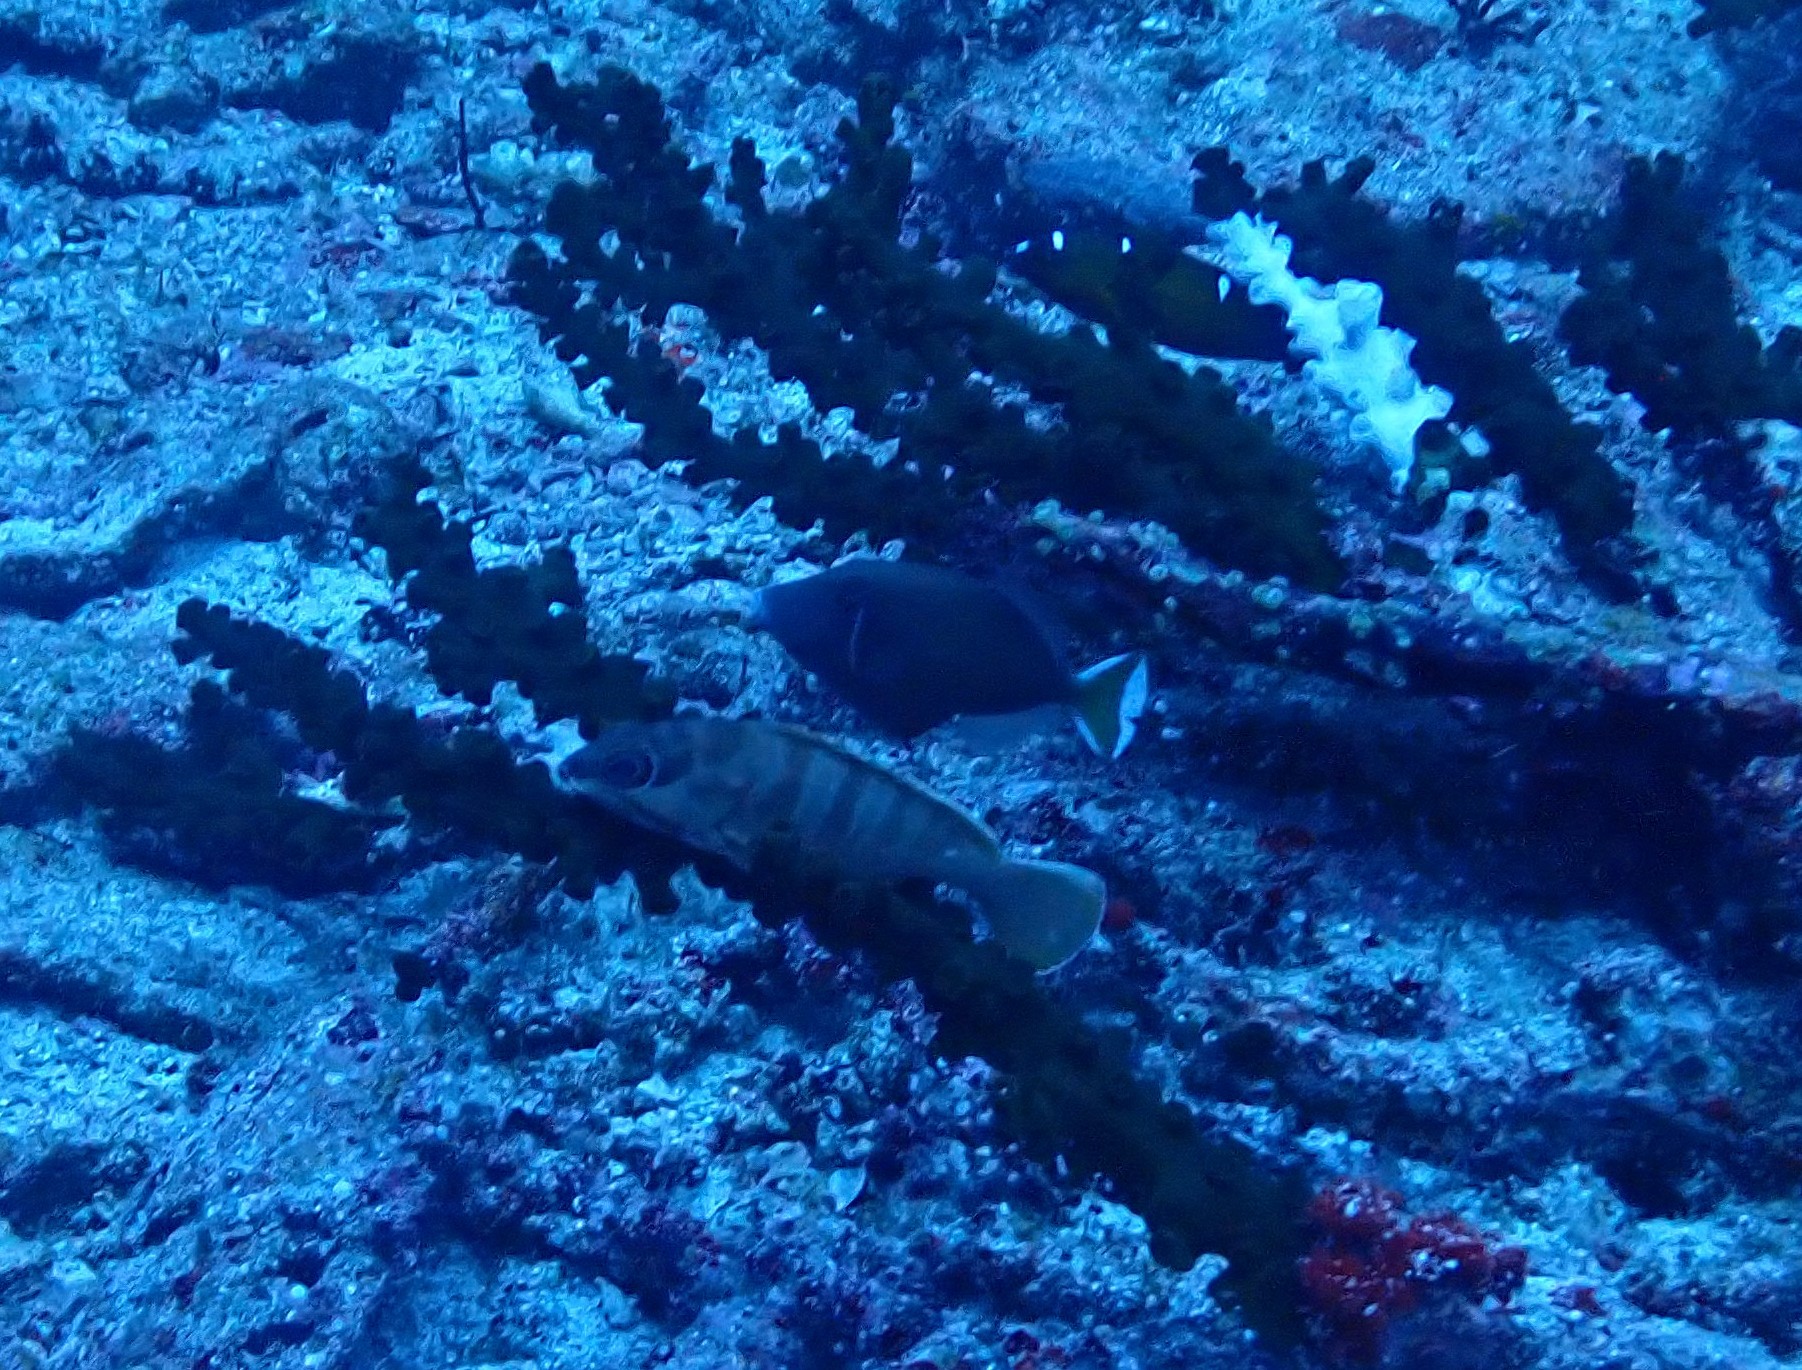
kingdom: Animalia
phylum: Chordata
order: Perciformes
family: Serranidae
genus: Epinephelus
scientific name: Epinephelus fasciatus
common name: Blacktip grouper
